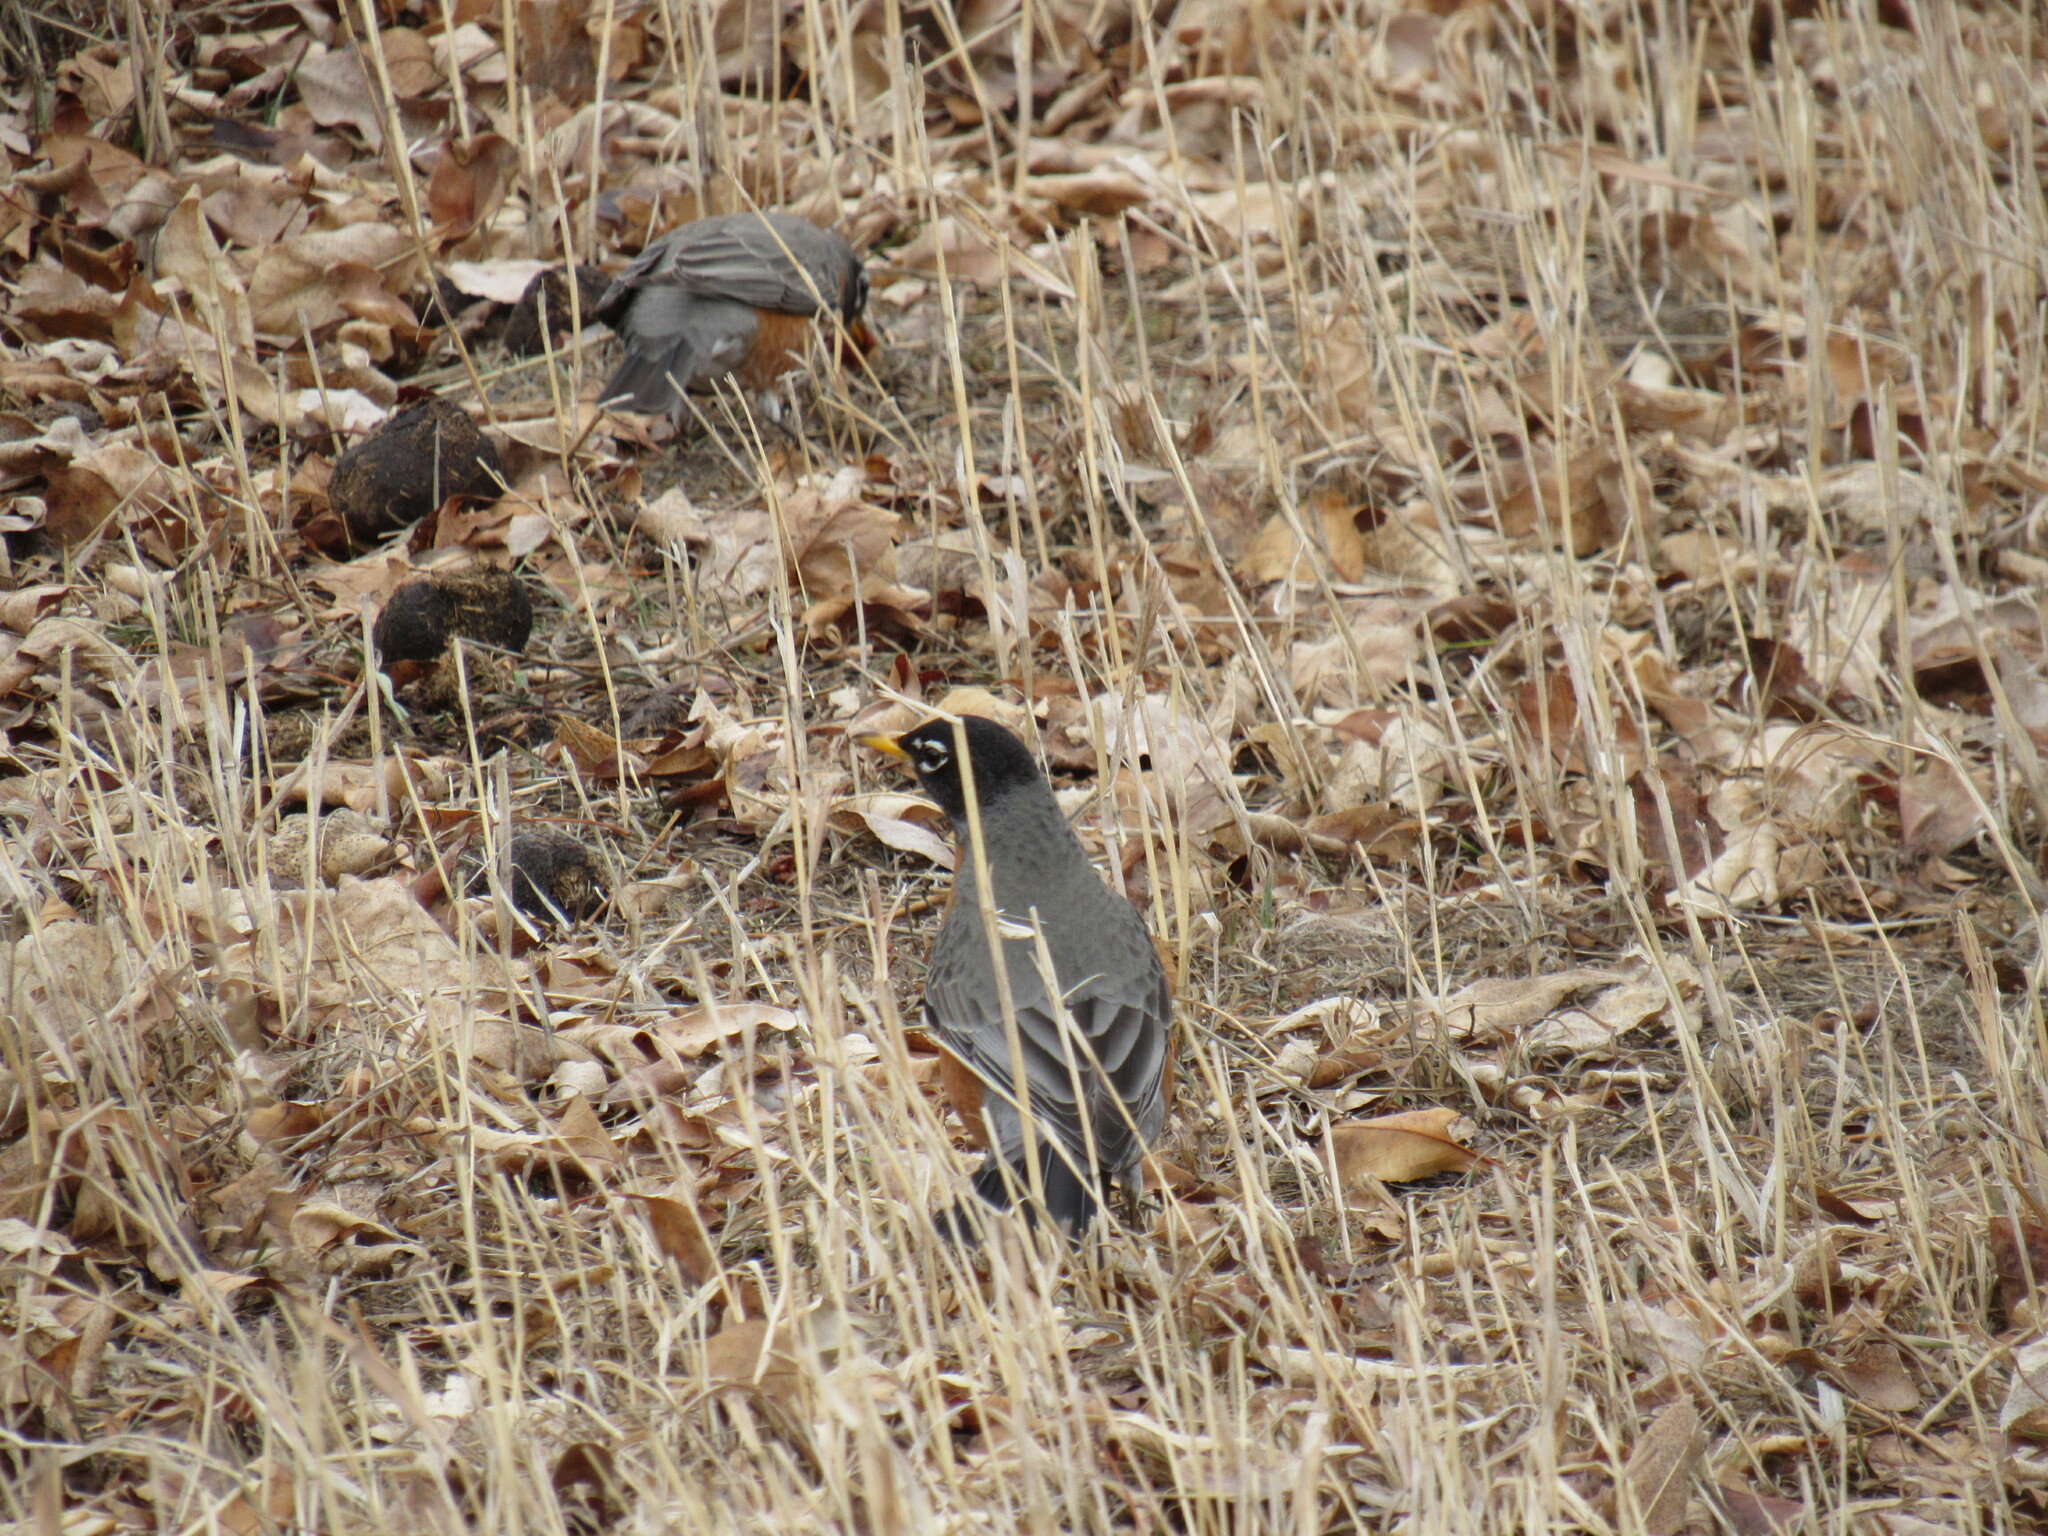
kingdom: Animalia
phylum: Chordata
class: Aves
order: Passeriformes
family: Turdidae
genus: Turdus
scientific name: Turdus migratorius
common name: American robin
